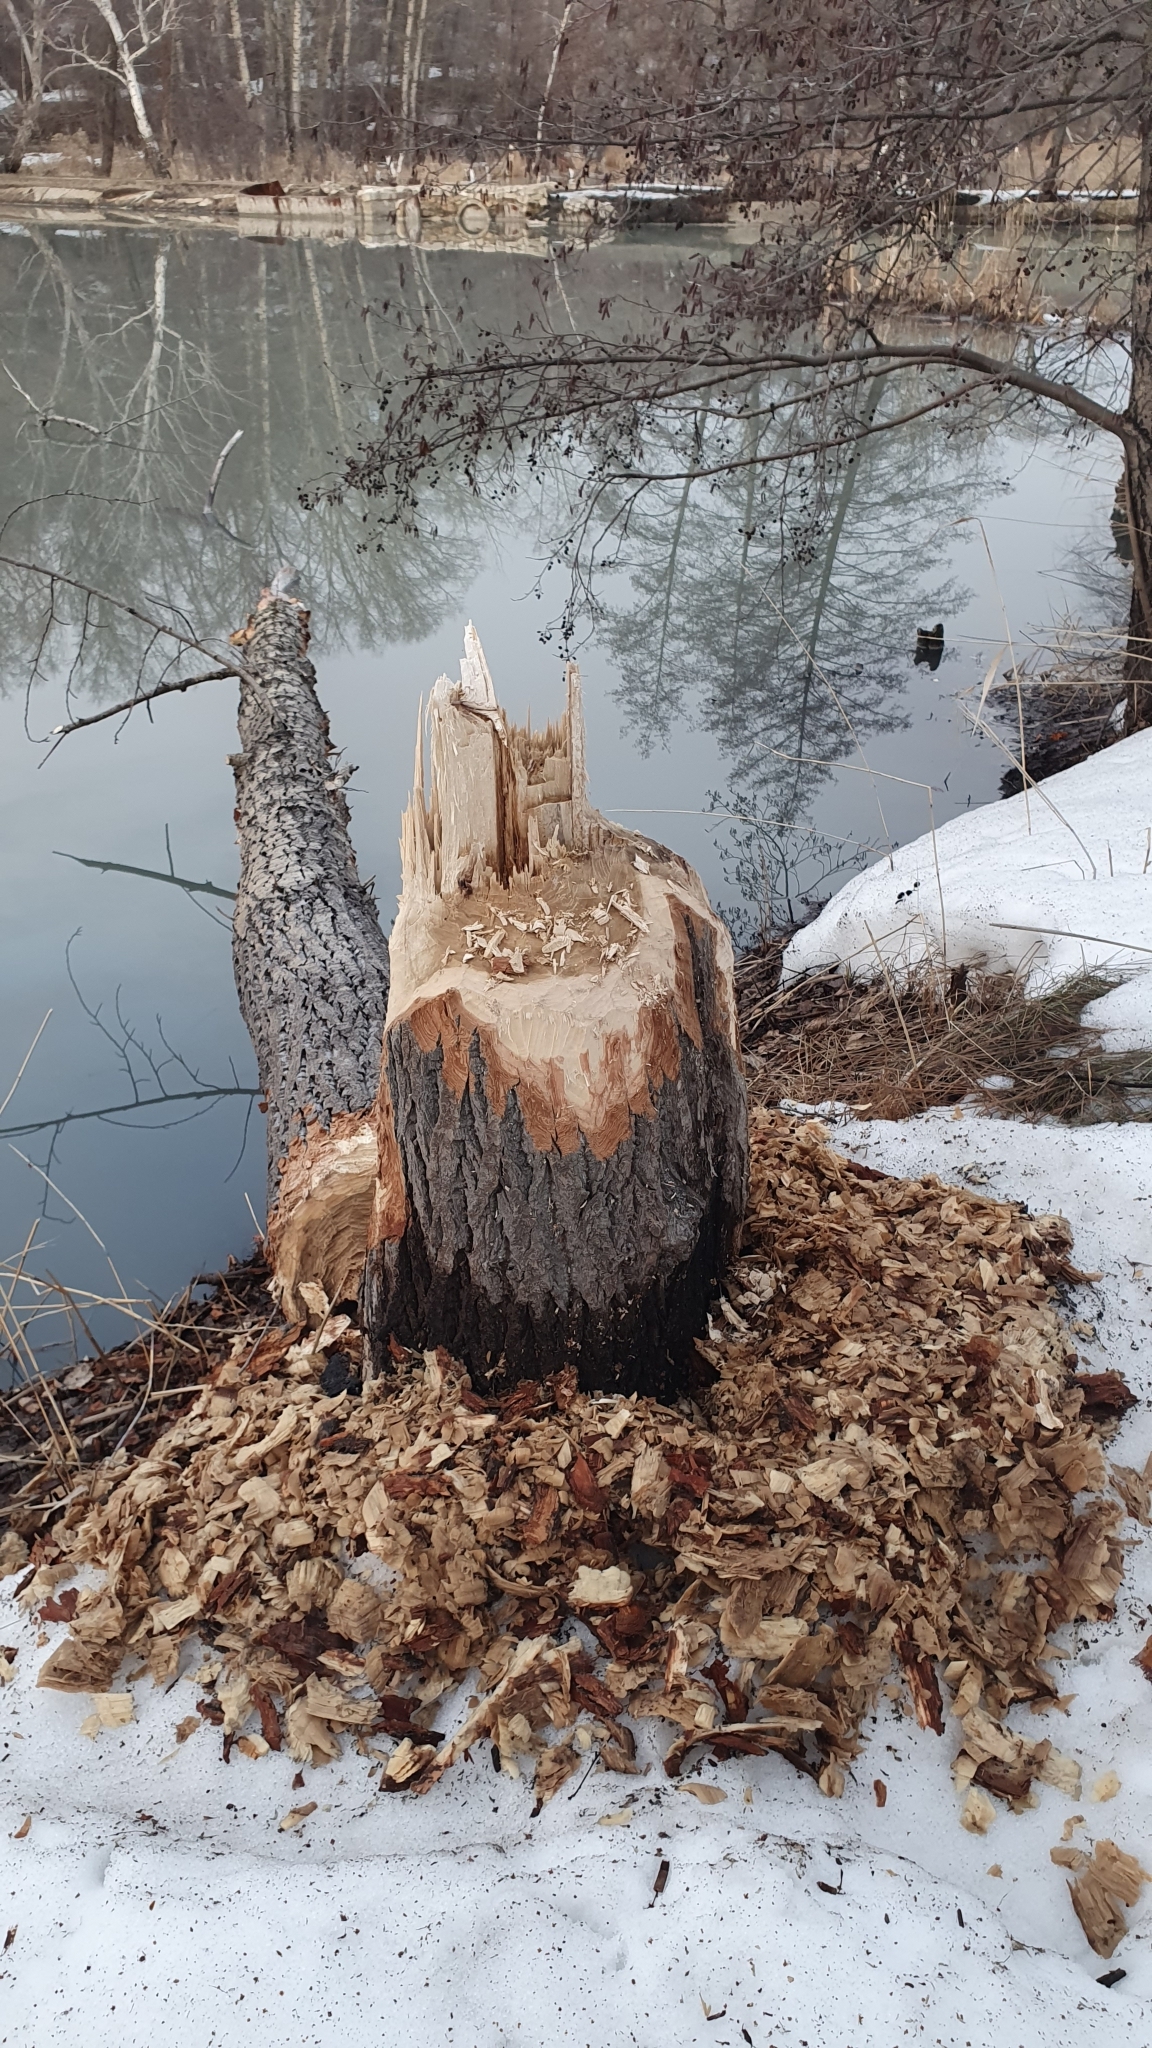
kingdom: Animalia
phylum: Chordata
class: Mammalia
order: Rodentia
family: Castoridae
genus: Castor
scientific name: Castor fiber
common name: Eurasian beaver
